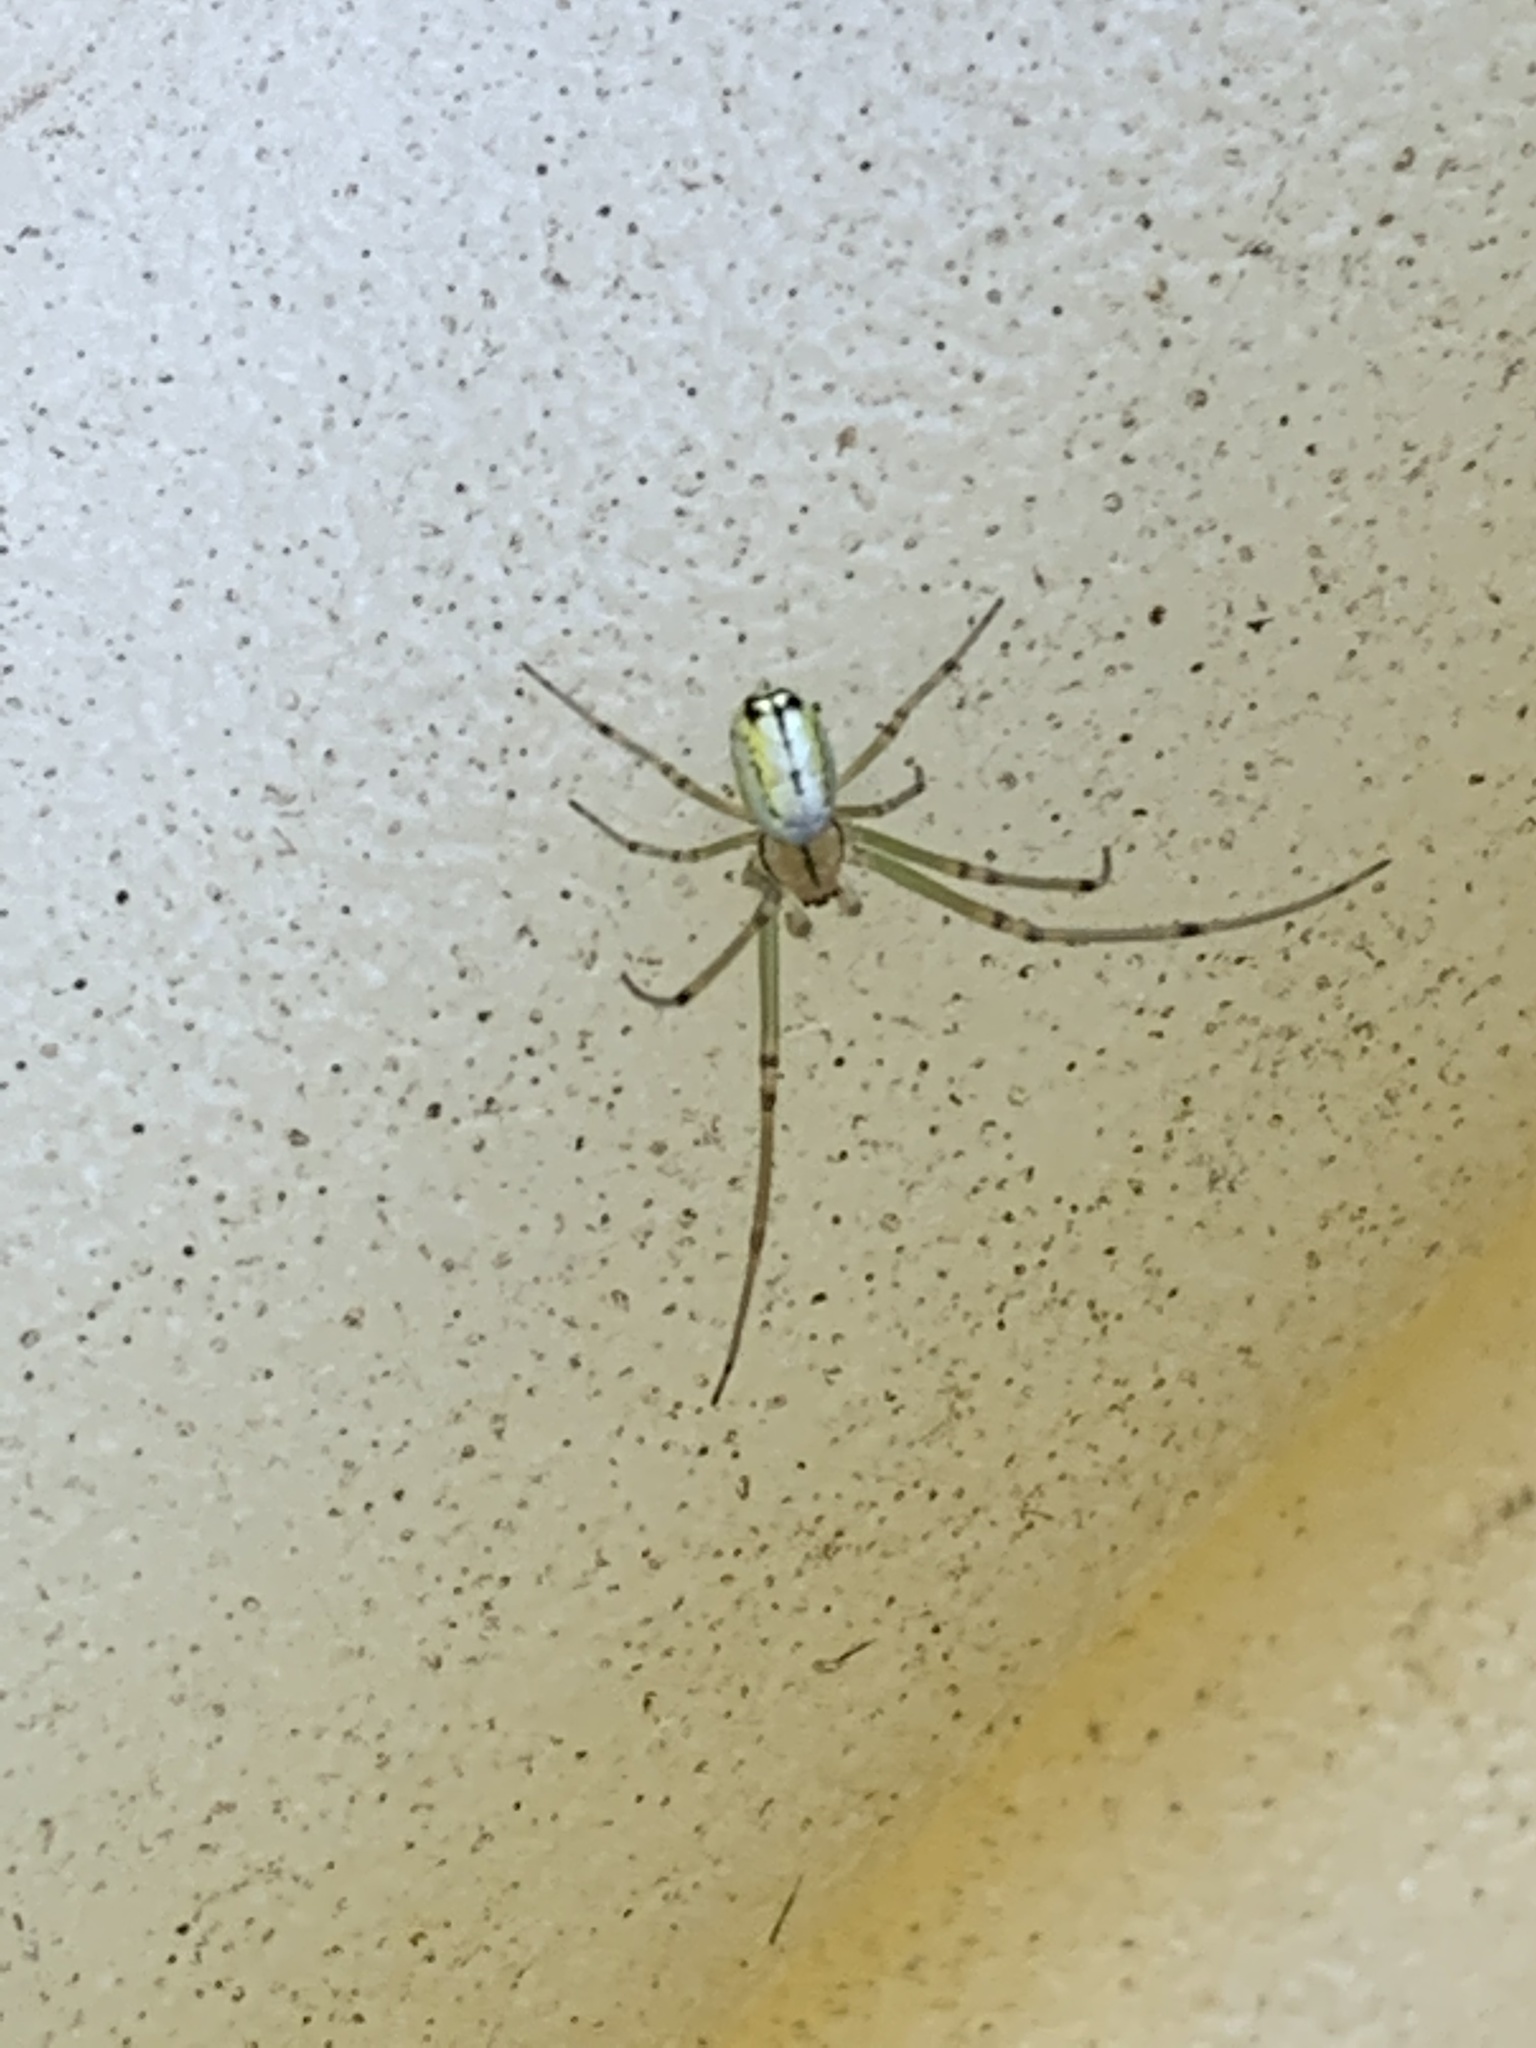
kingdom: Animalia
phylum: Arthropoda
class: Arachnida
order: Araneae
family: Tetragnathidae
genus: Leucauge
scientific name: Leucauge venusta
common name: Longjawed orb weavers
